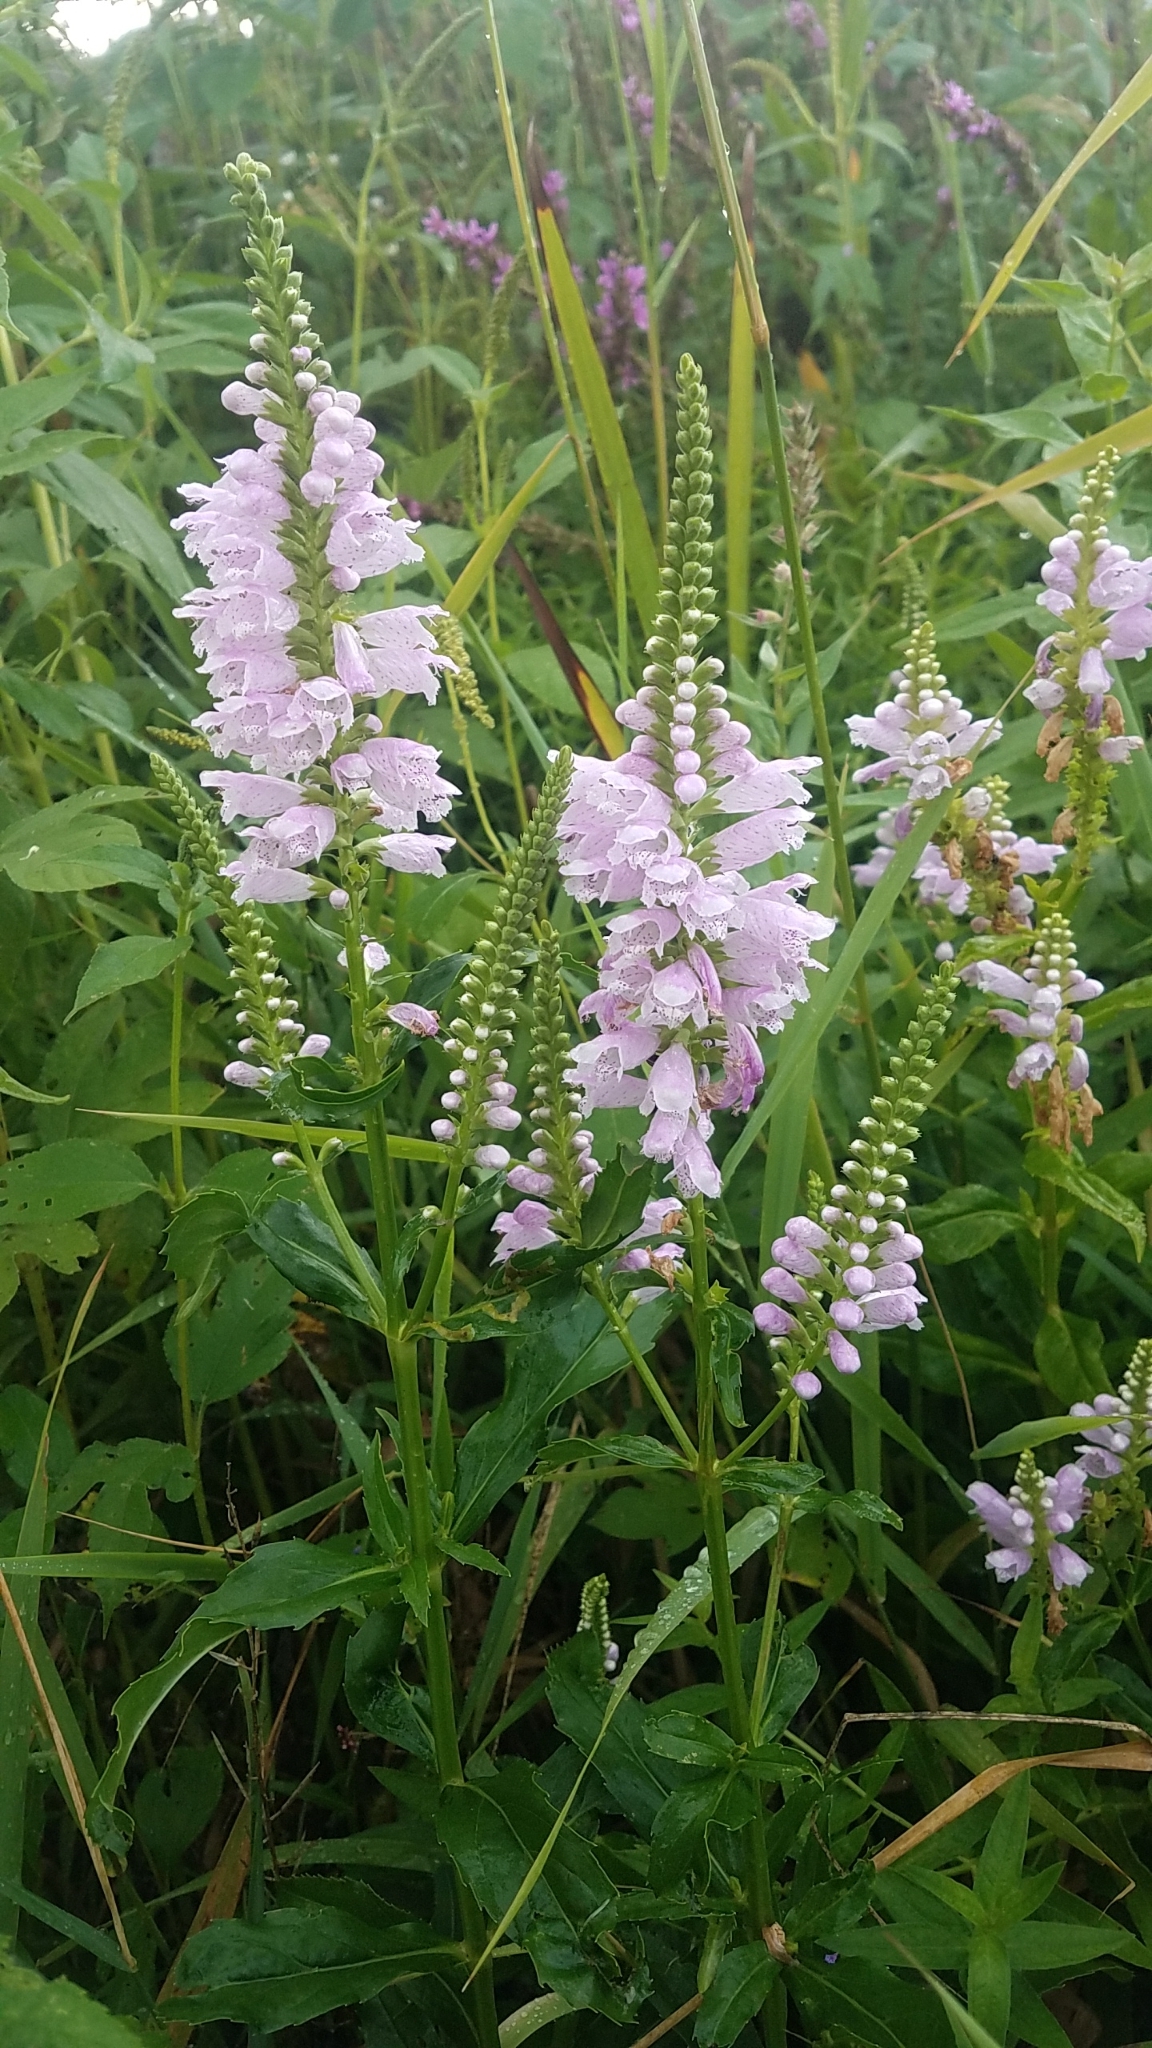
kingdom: Plantae
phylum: Tracheophyta
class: Magnoliopsida
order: Lamiales
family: Lamiaceae
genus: Physostegia
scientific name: Physostegia virginiana
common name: Obedient-plant
